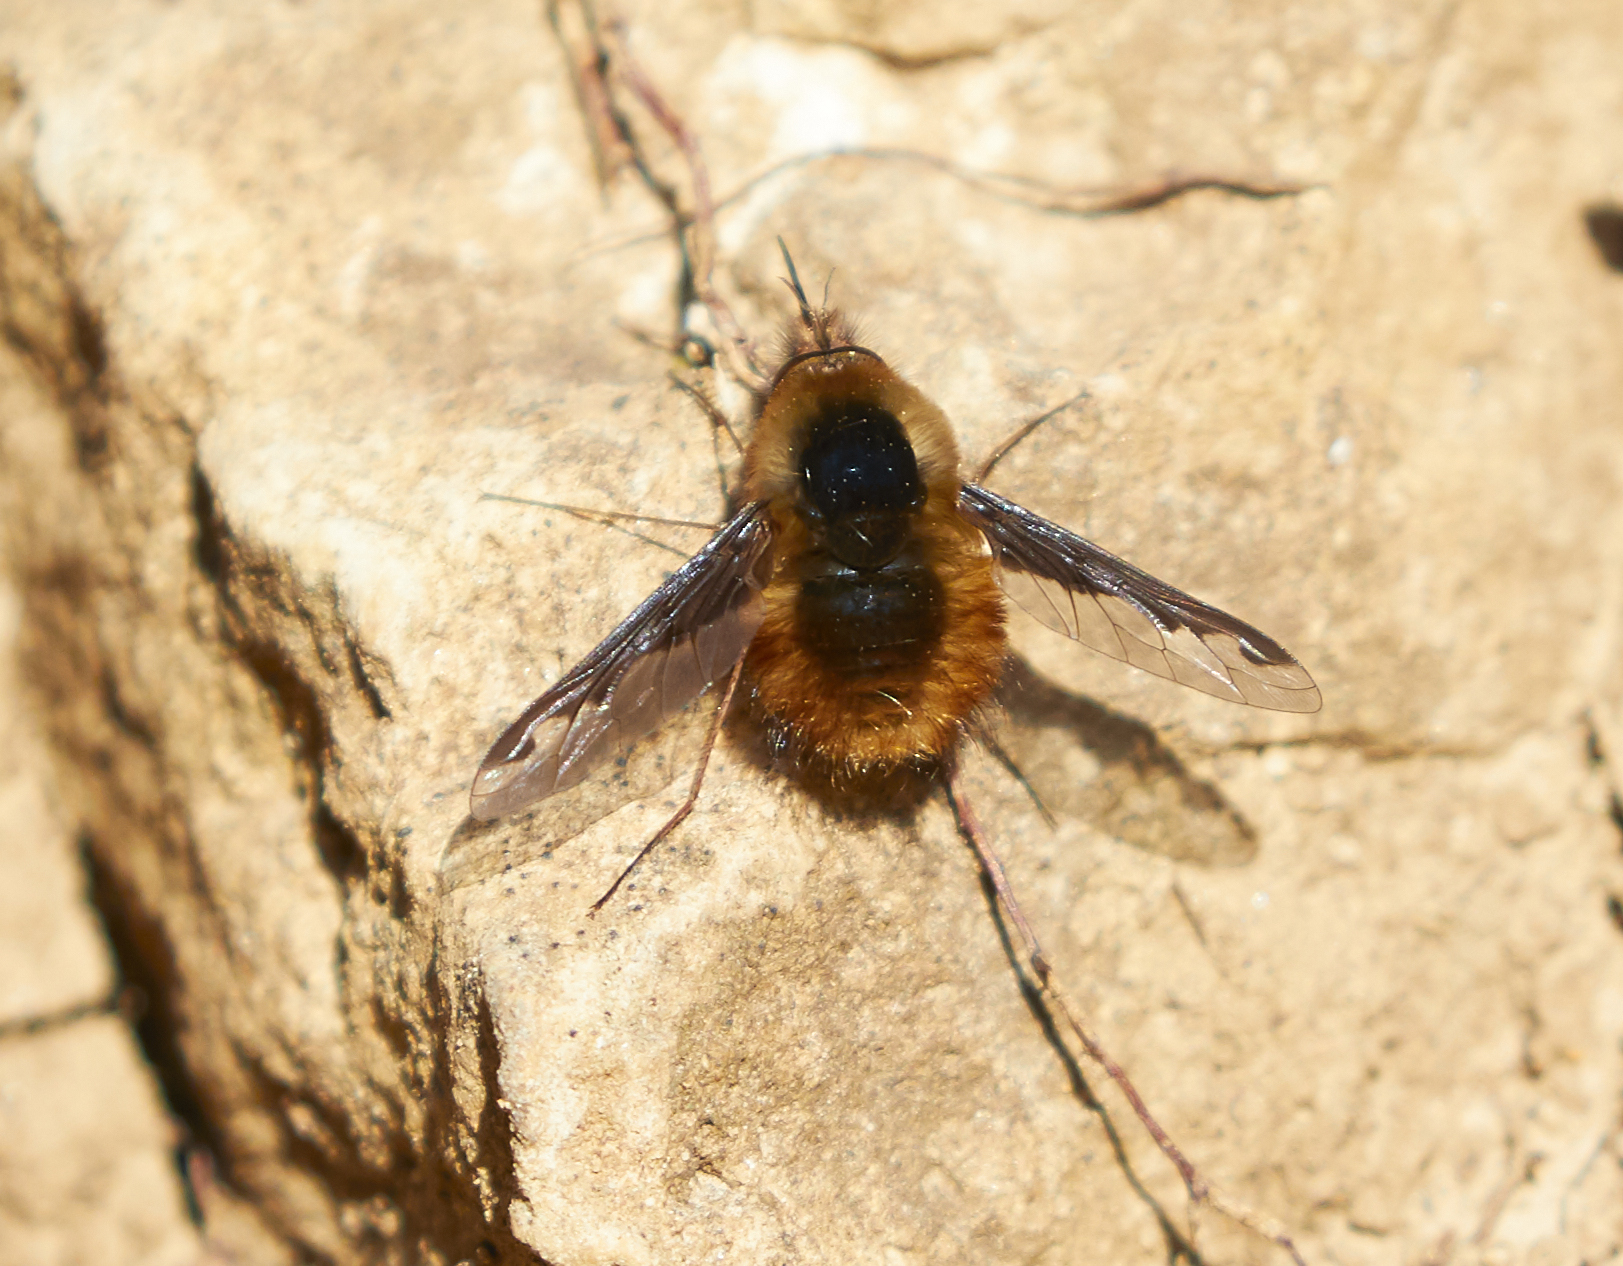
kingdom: Animalia
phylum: Arthropoda
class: Insecta
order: Diptera
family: Bombyliidae
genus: Bombylius
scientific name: Bombylius major
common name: Bee fly
